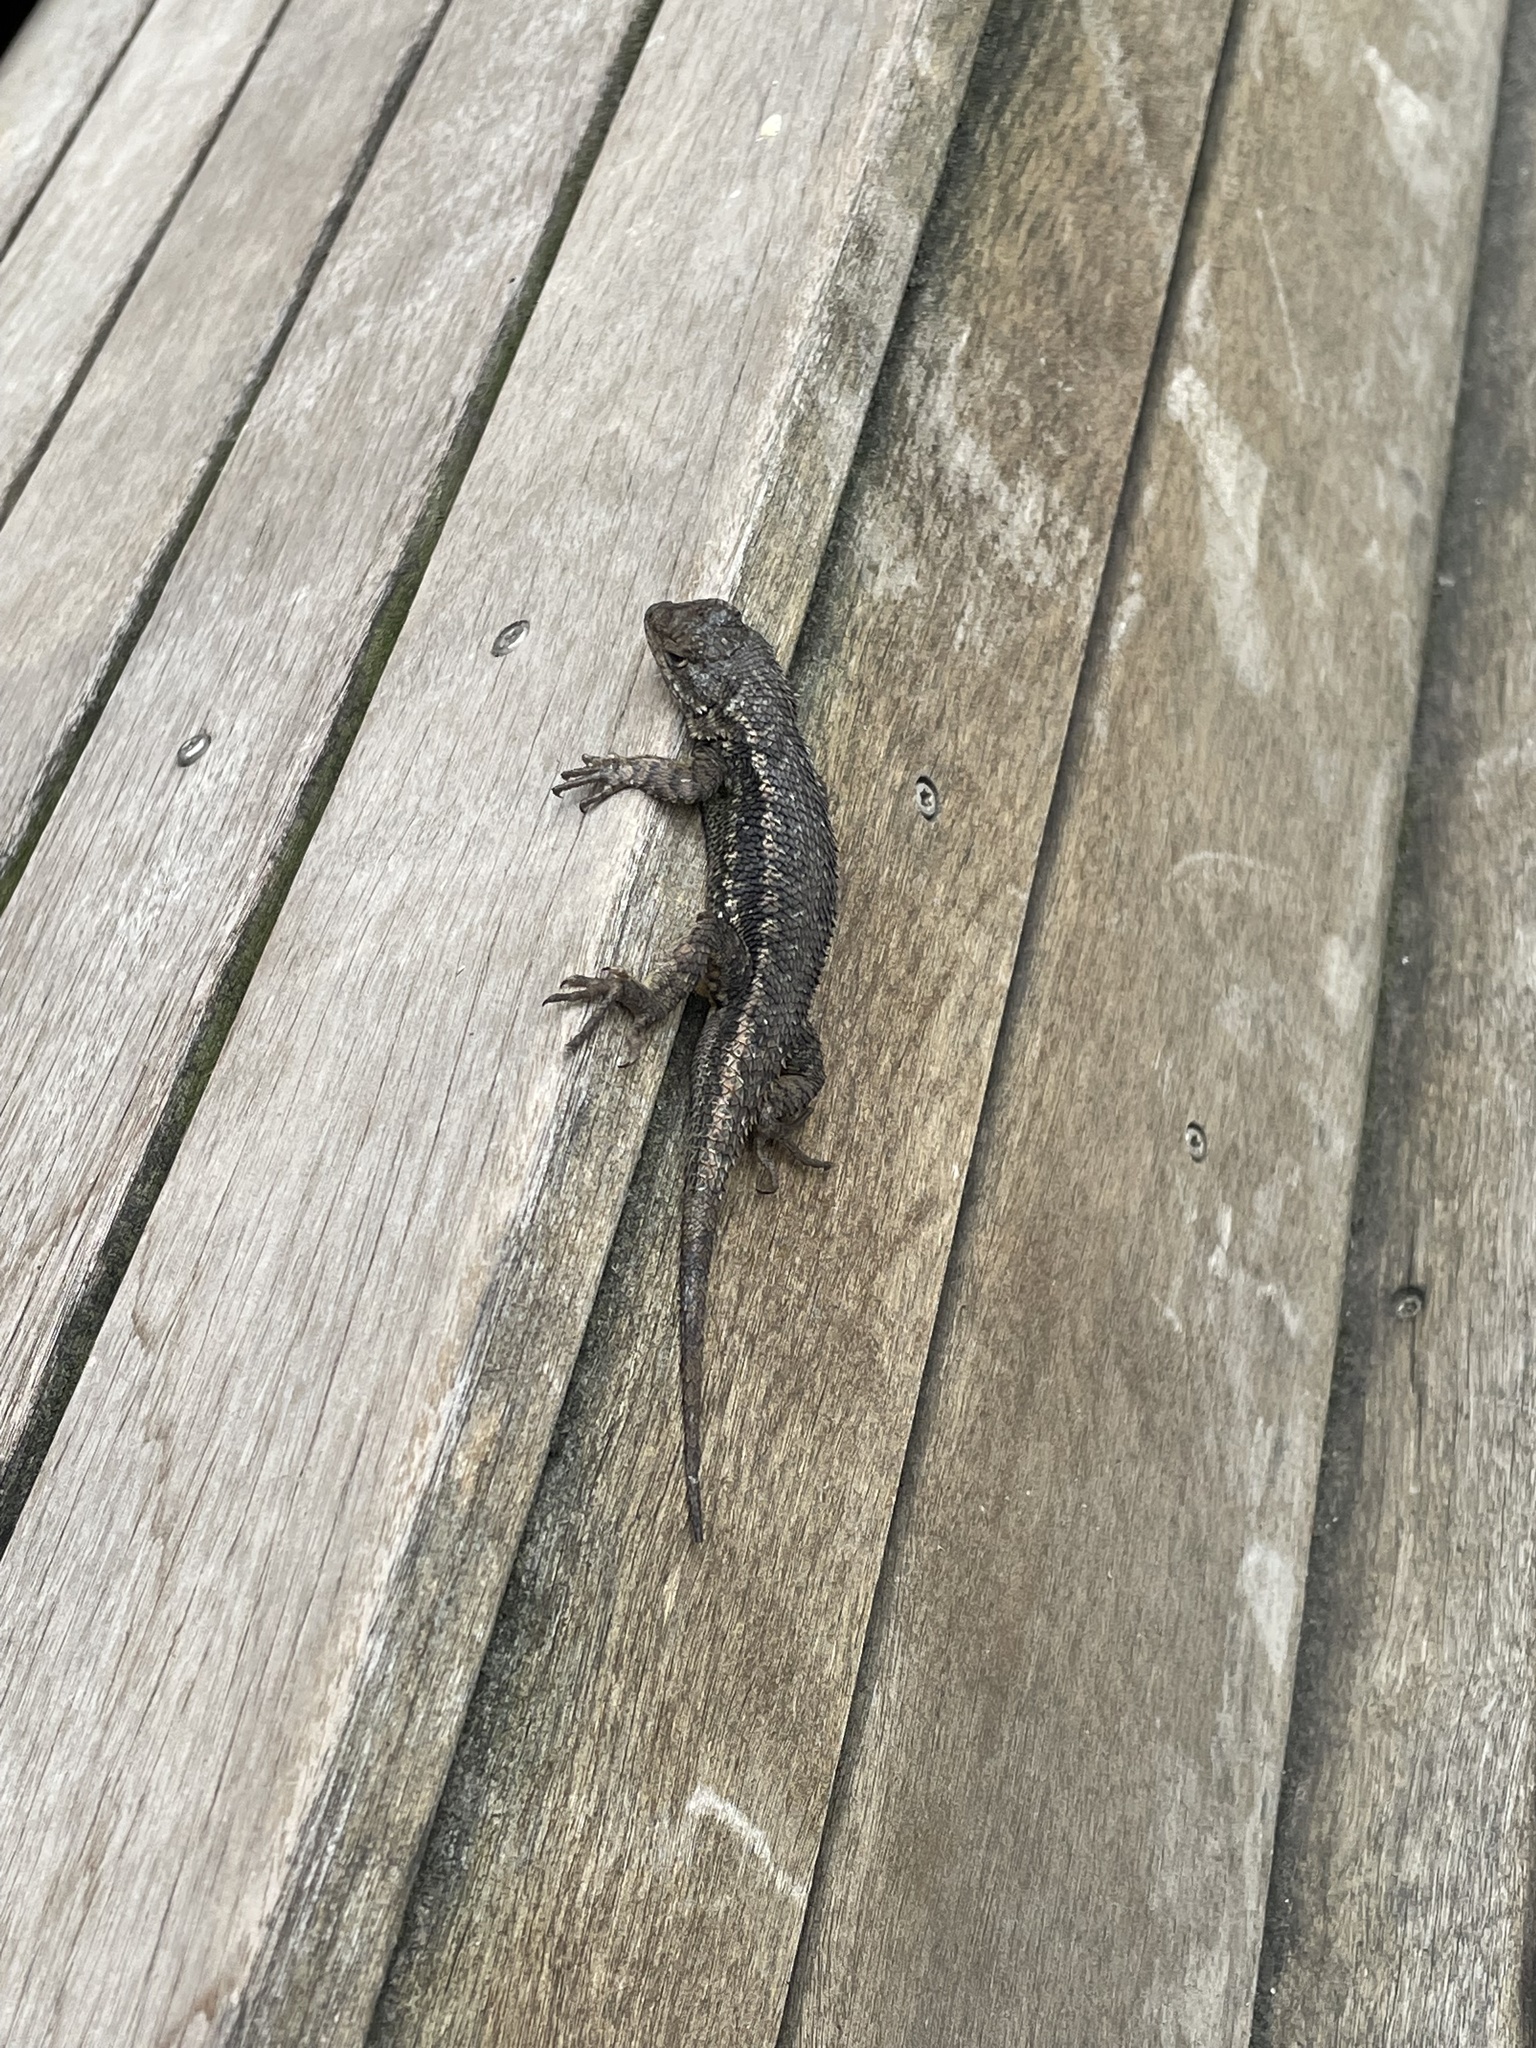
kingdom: Animalia
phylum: Chordata
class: Squamata
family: Phrynosomatidae
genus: Sceloporus
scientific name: Sceloporus occidentalis
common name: Western fence lizard
